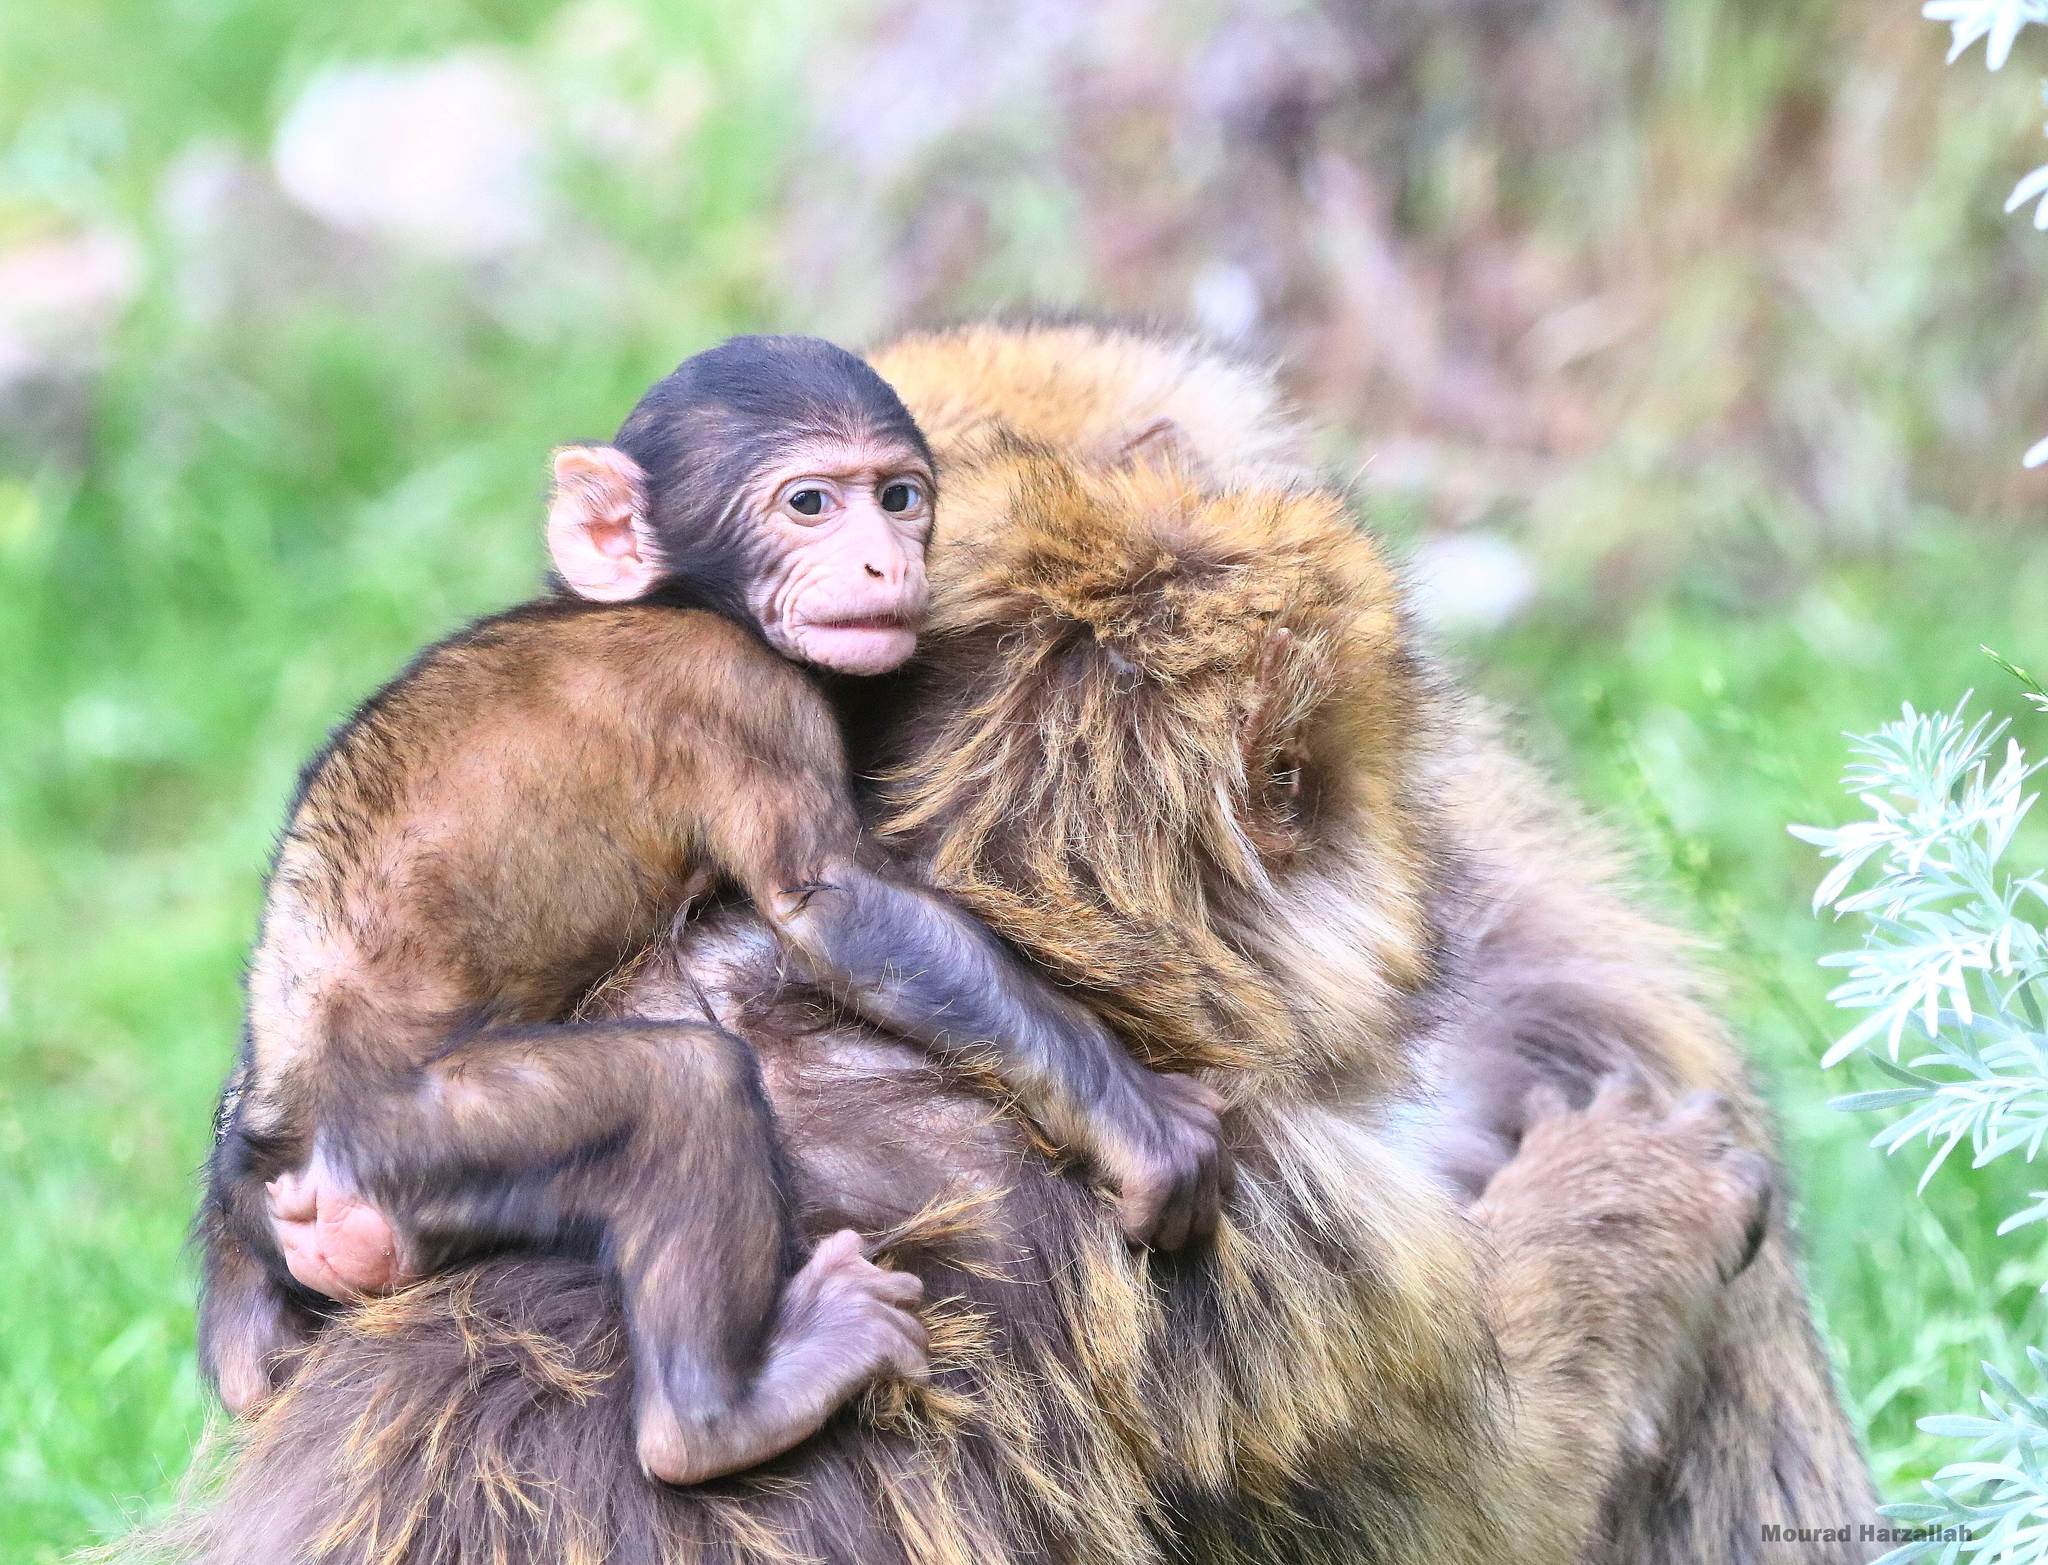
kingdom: Animalia
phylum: Chordata
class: Mammalia
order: Primates
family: Cercopithecidae
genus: Macaca
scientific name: Macaca sylvanus
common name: Barbary macaque
